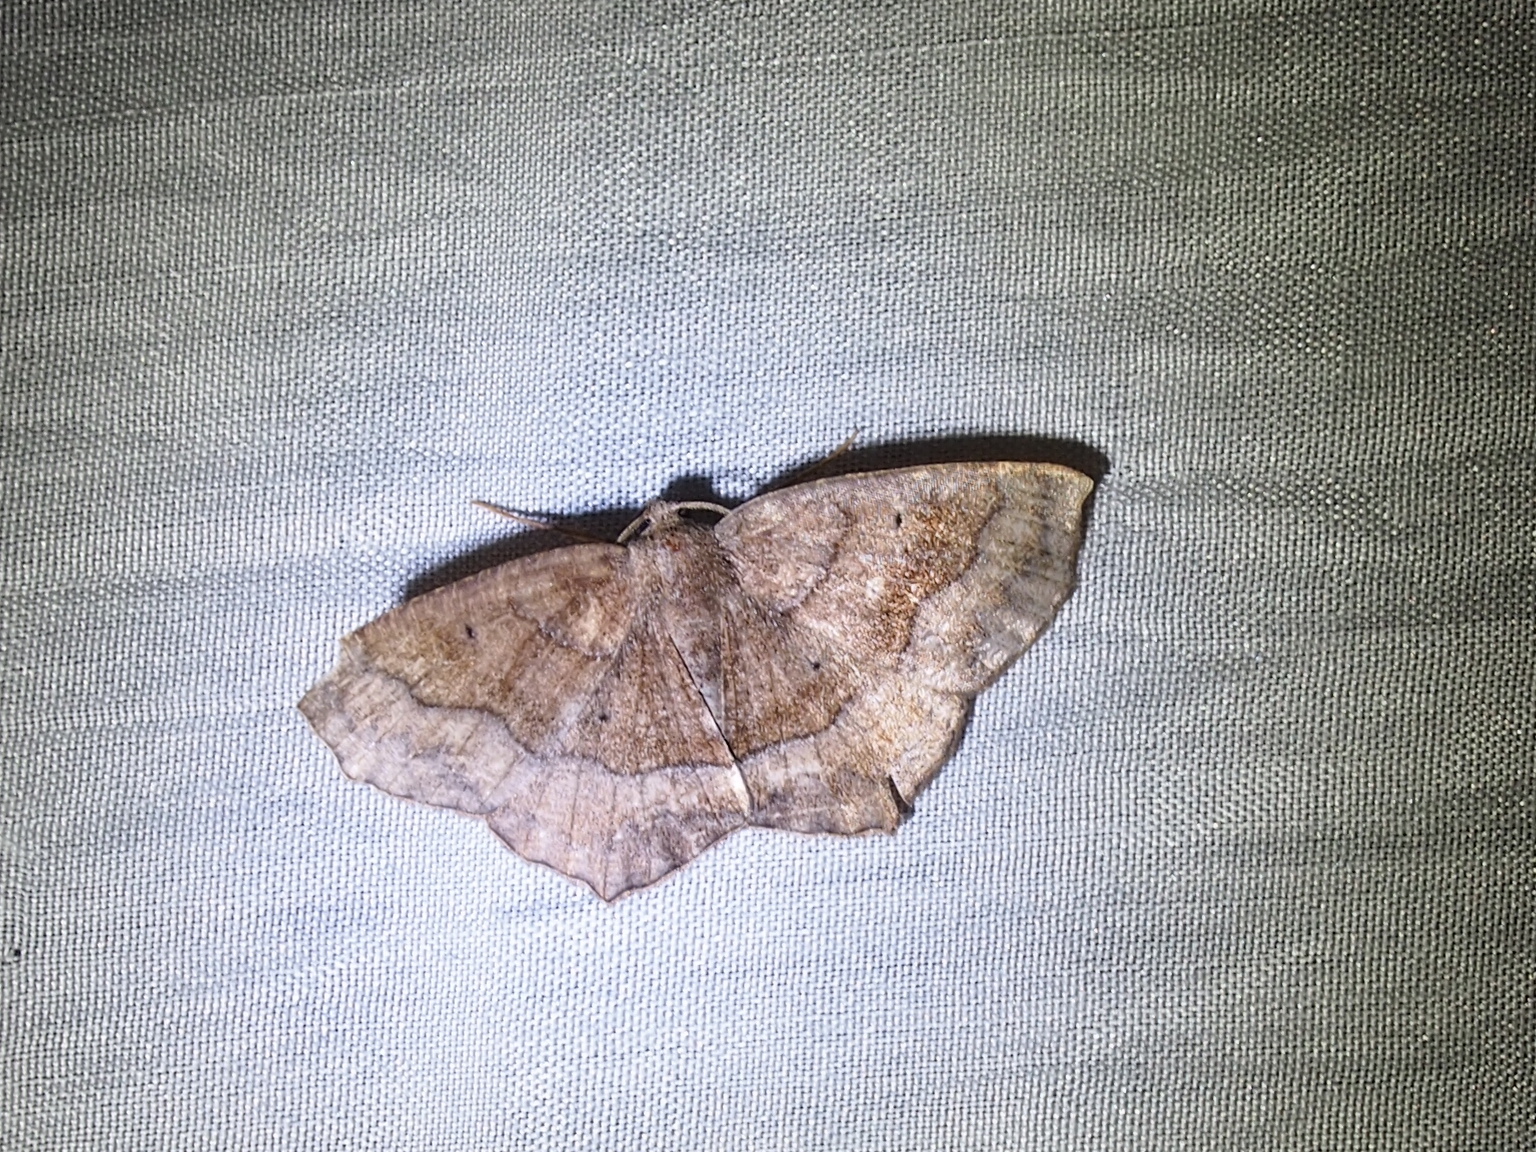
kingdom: Animalia
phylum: Arthropoda
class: Insecta
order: Lepidoptera
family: Geometridae
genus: Anisoperas
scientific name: Anisoperas atropunctaria
